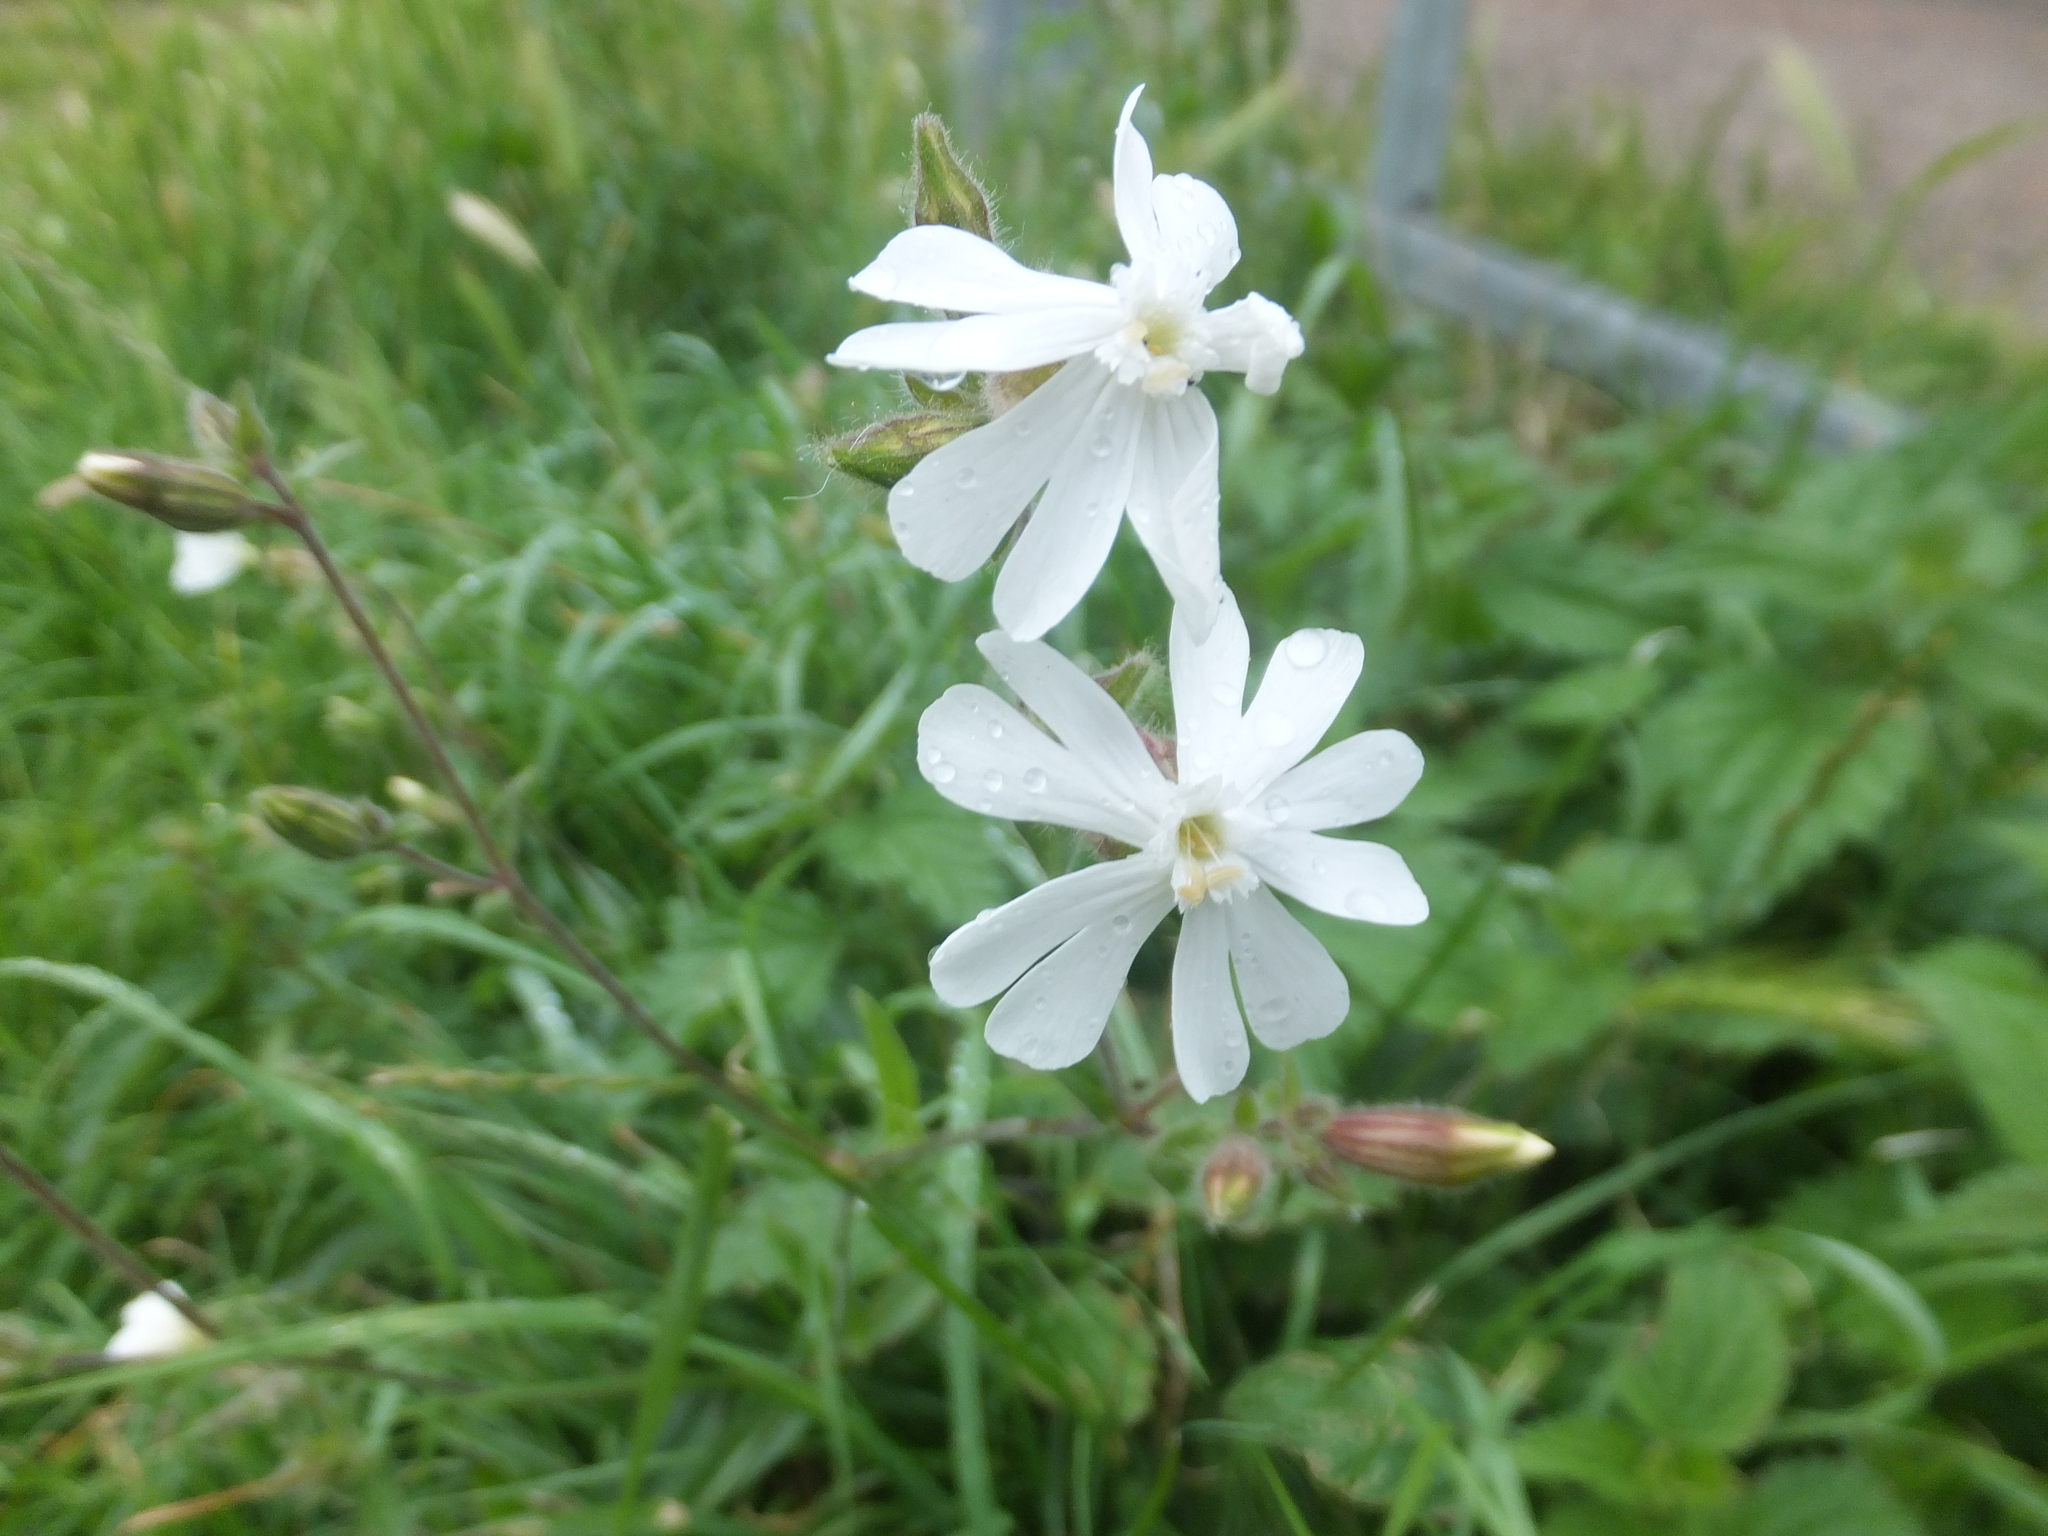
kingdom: Plantae
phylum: Tracheophyta
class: Magnoliopsida
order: Caryophyllales
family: Caryophyllaceae
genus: Silene
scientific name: Silene latifolia
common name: White campion
